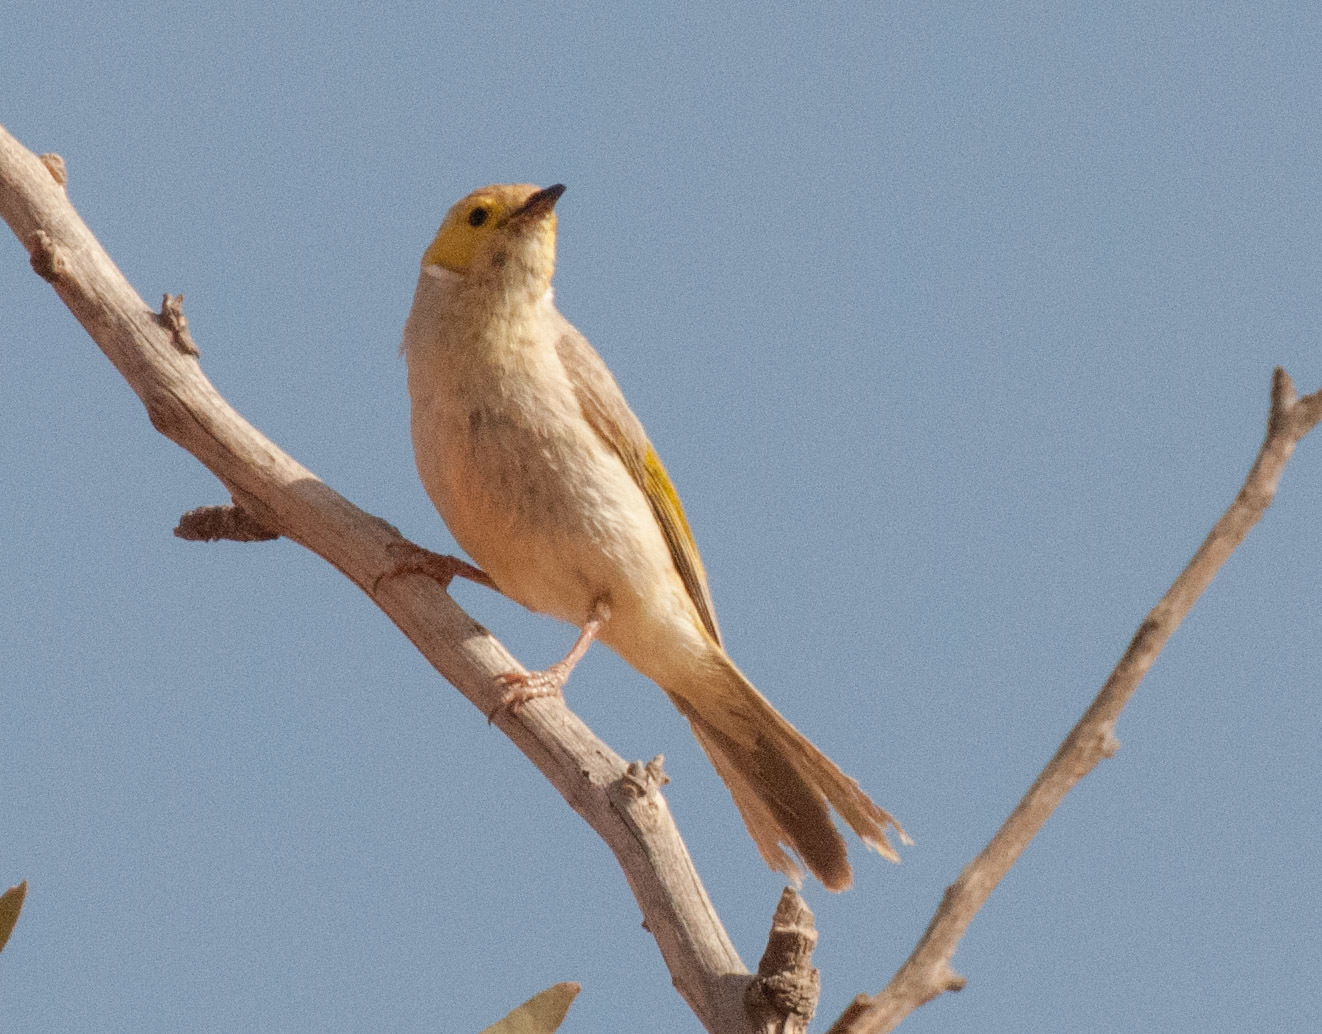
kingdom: Animalia
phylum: Chordata
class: Aves
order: Passeriformes
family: Meliphagidae
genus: Ptilotula
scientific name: Ptilotula penicillata
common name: White-plumed honeyeater
